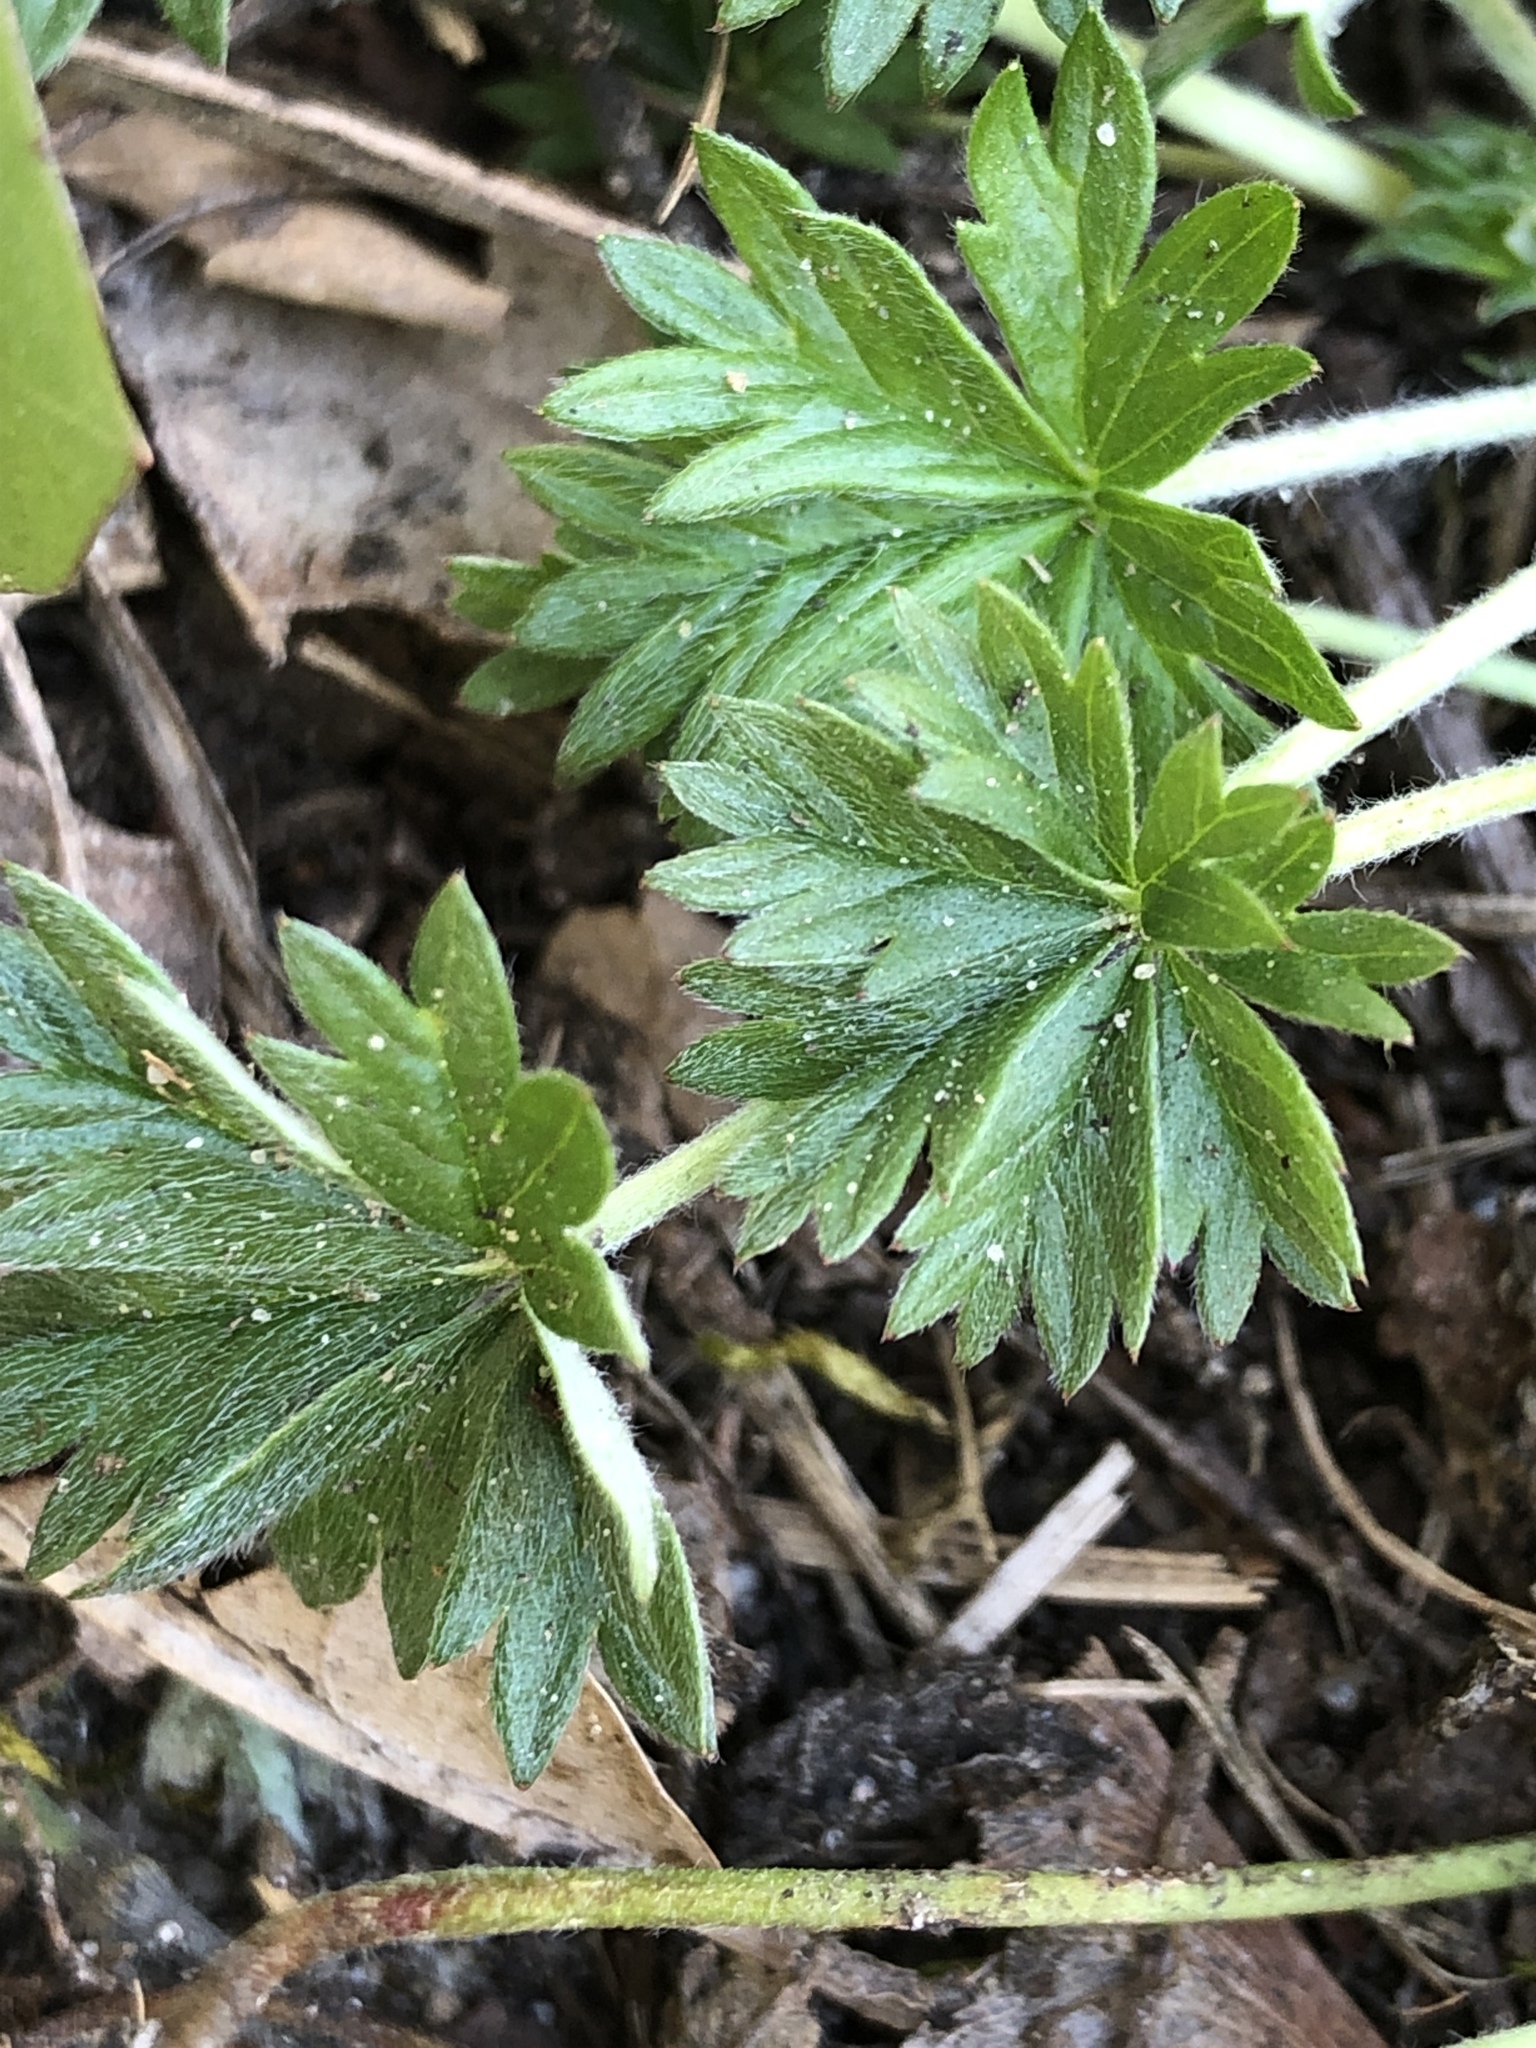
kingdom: Plantae
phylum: Tracheophyta
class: Magnoliopsida
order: Rosales
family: Rosaceae
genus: Potentilla
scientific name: Potentilla argentea
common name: Hoary cinquefoil
